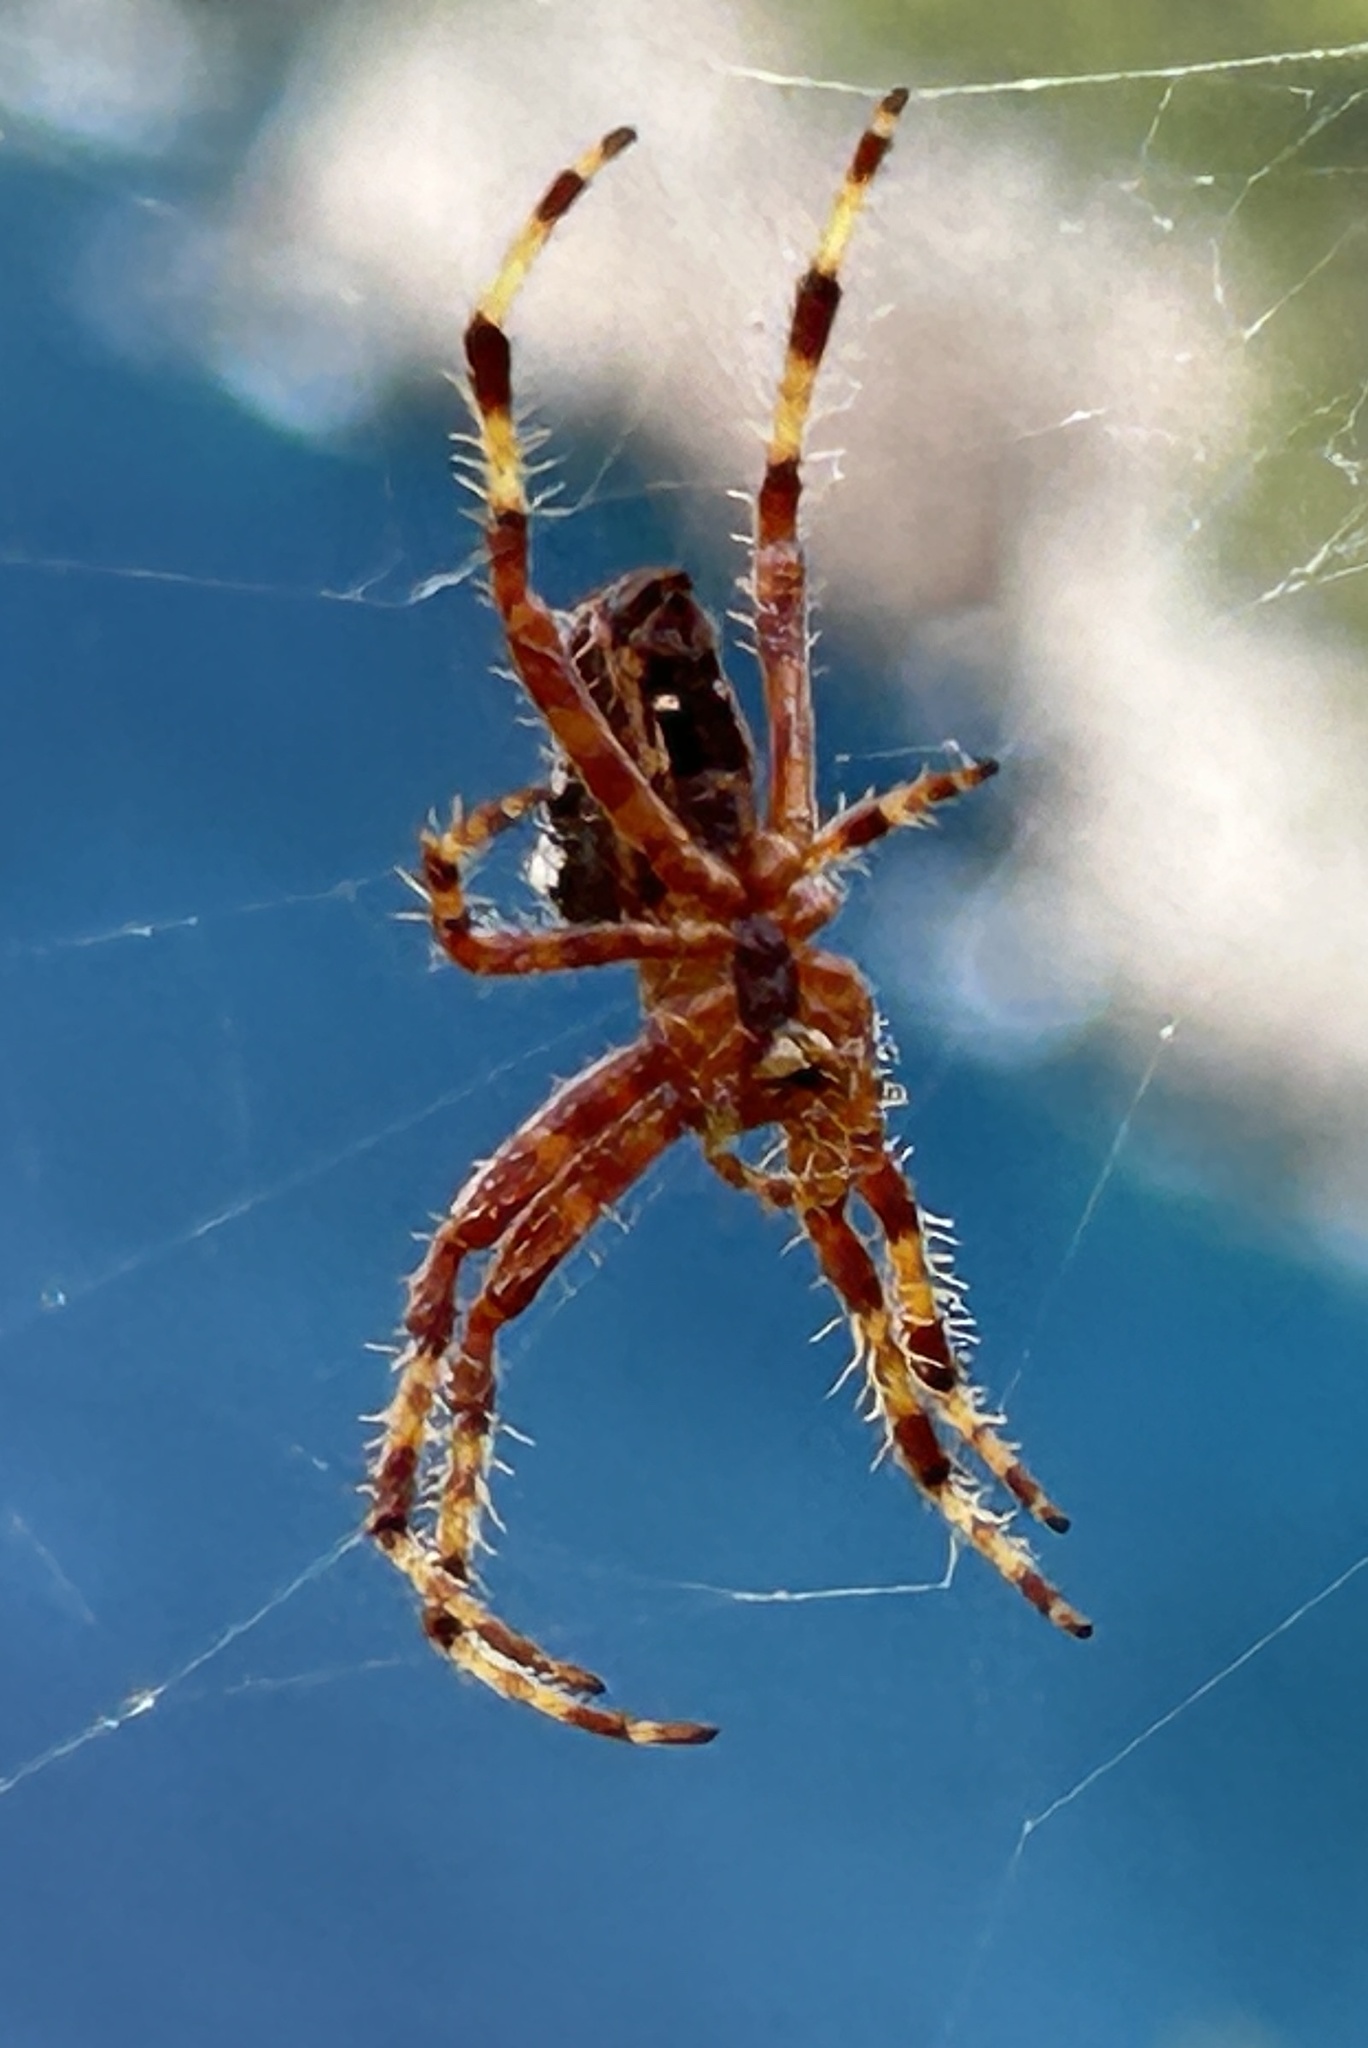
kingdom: Animalia
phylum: Arthropoda
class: Arachnida
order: Araneae
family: Araneidae
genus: Araneus
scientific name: Araneus diadematus
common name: Cross orbweaver
